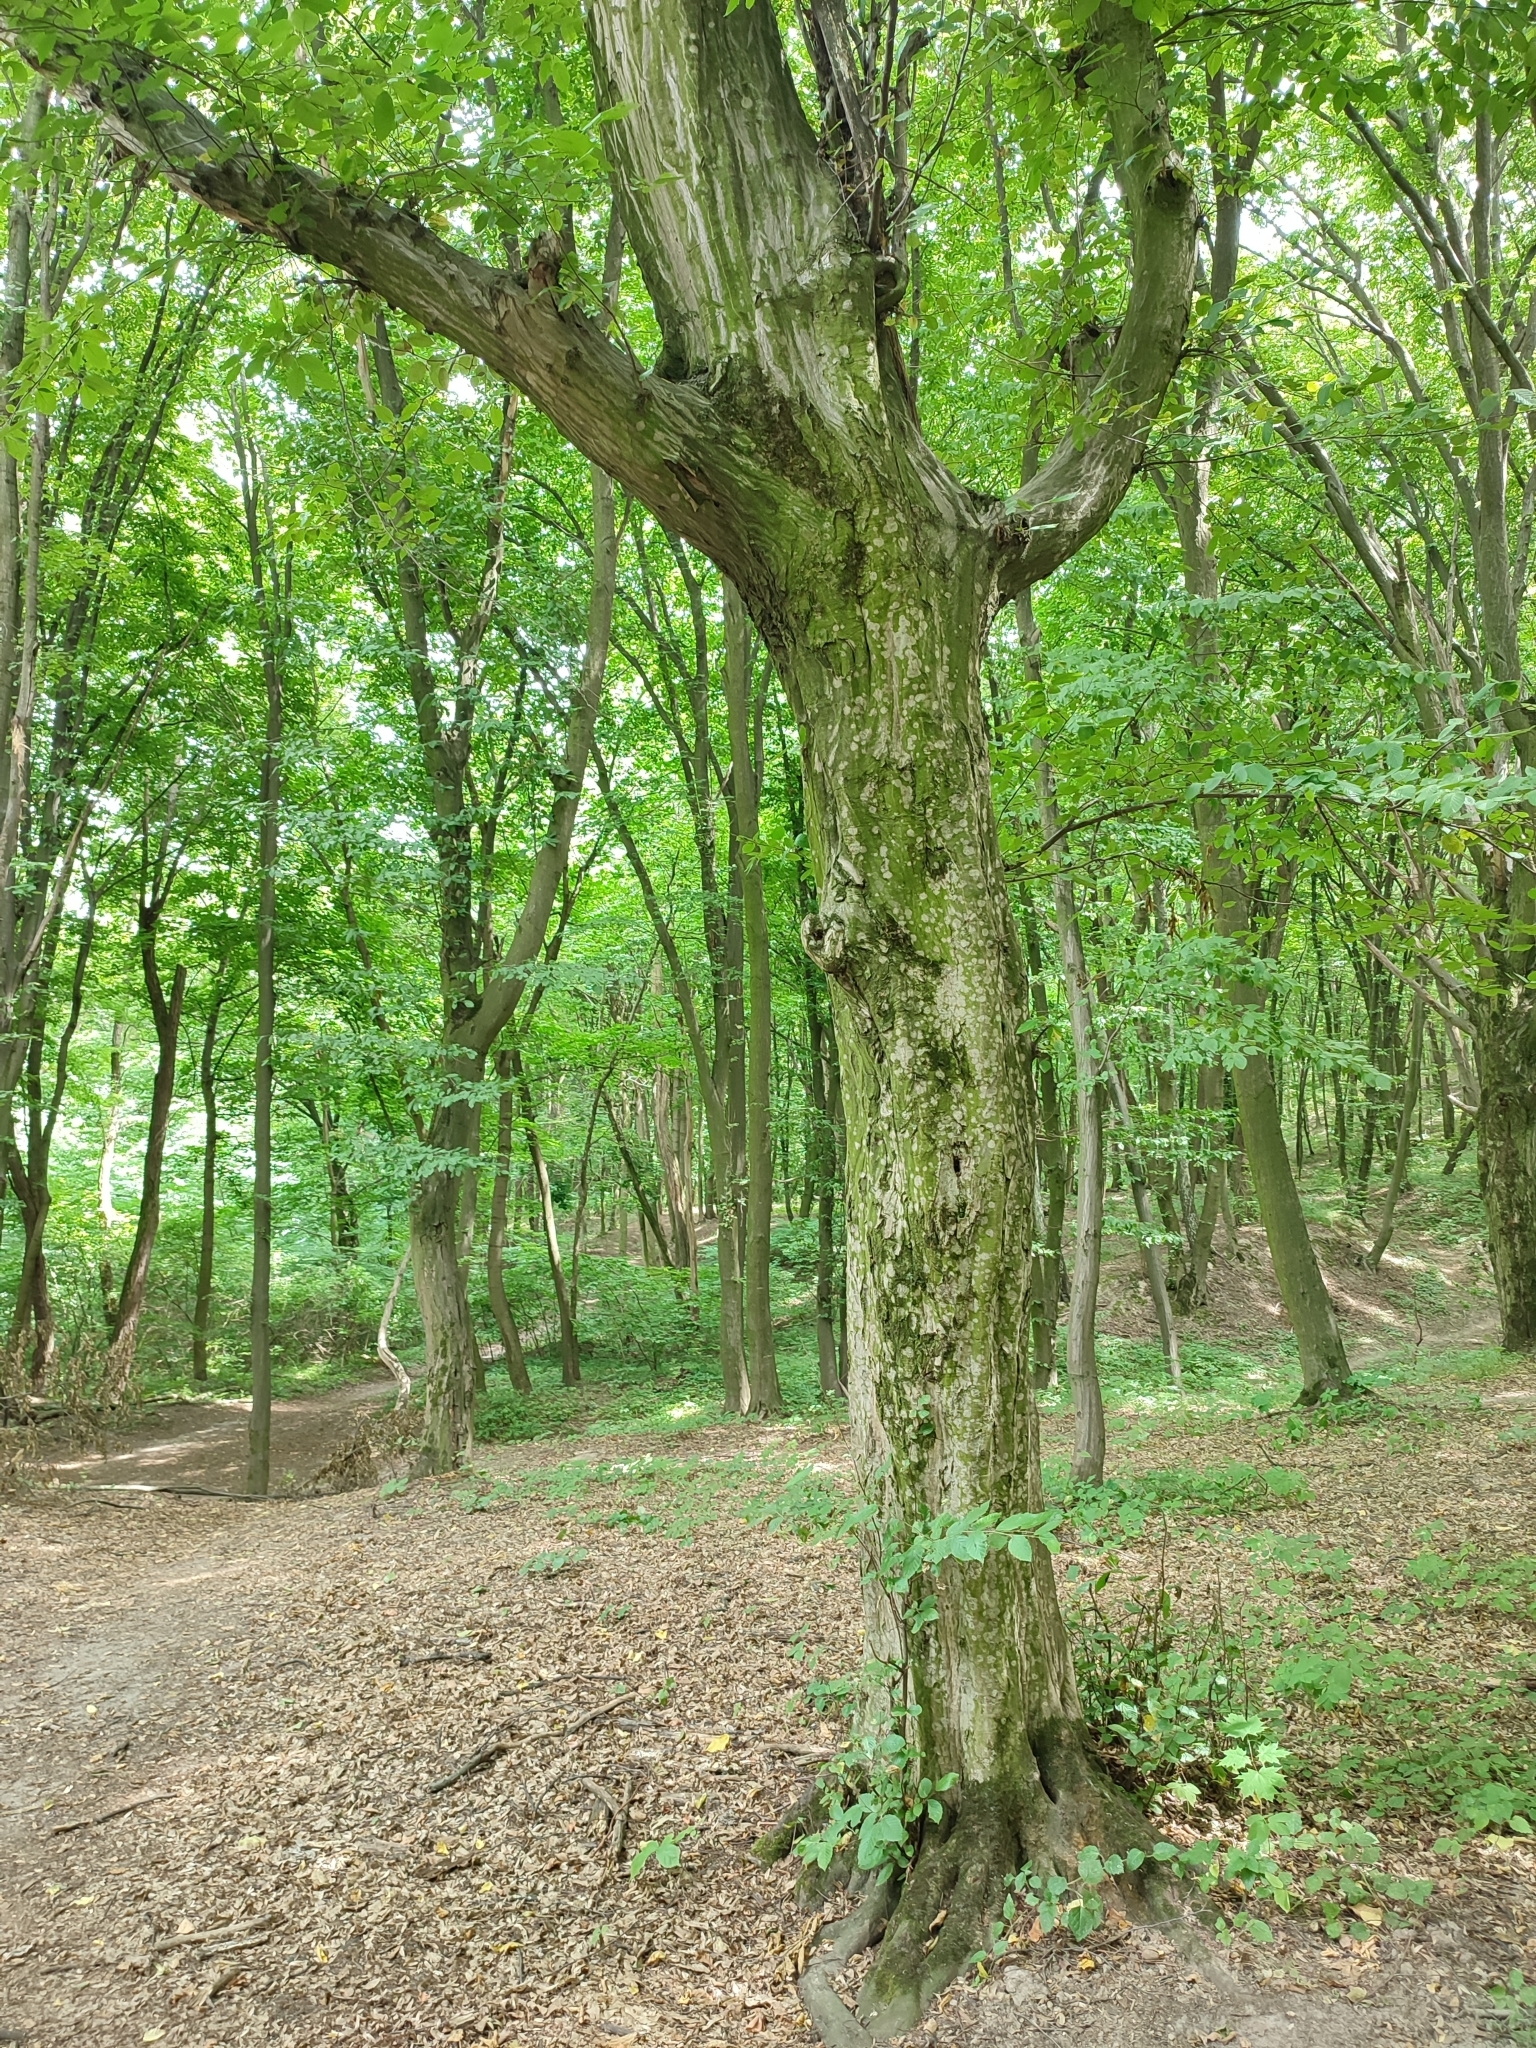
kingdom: Plantae
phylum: Tracheophyta
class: Magnoliopsida
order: Fagales
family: Betulaceae
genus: Carpinus
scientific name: Carpinus betulus
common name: Hornbeam
